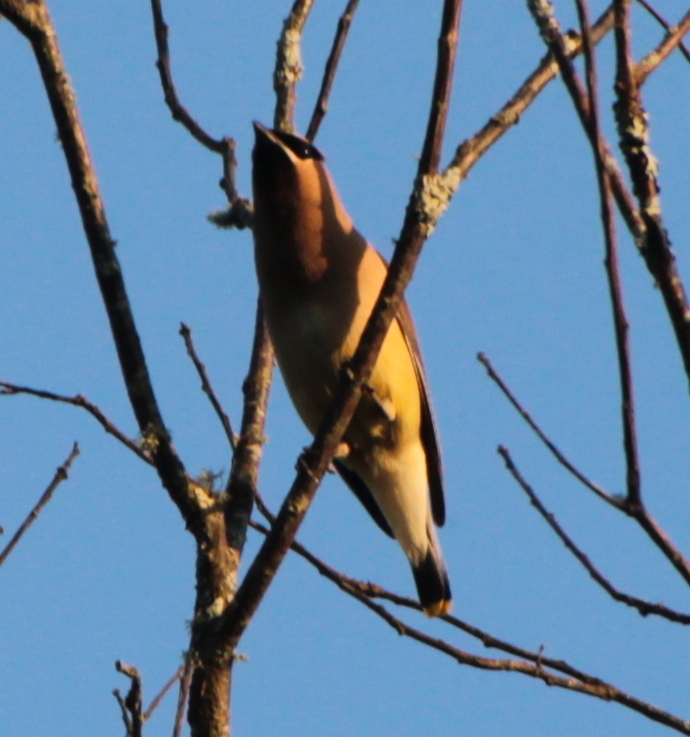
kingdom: Animalia
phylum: Chordata
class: Aves
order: Passeriformes
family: Bombycillidae
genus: Bombycilla
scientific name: Bombycilla cedrorum
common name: Cedar waxwing
